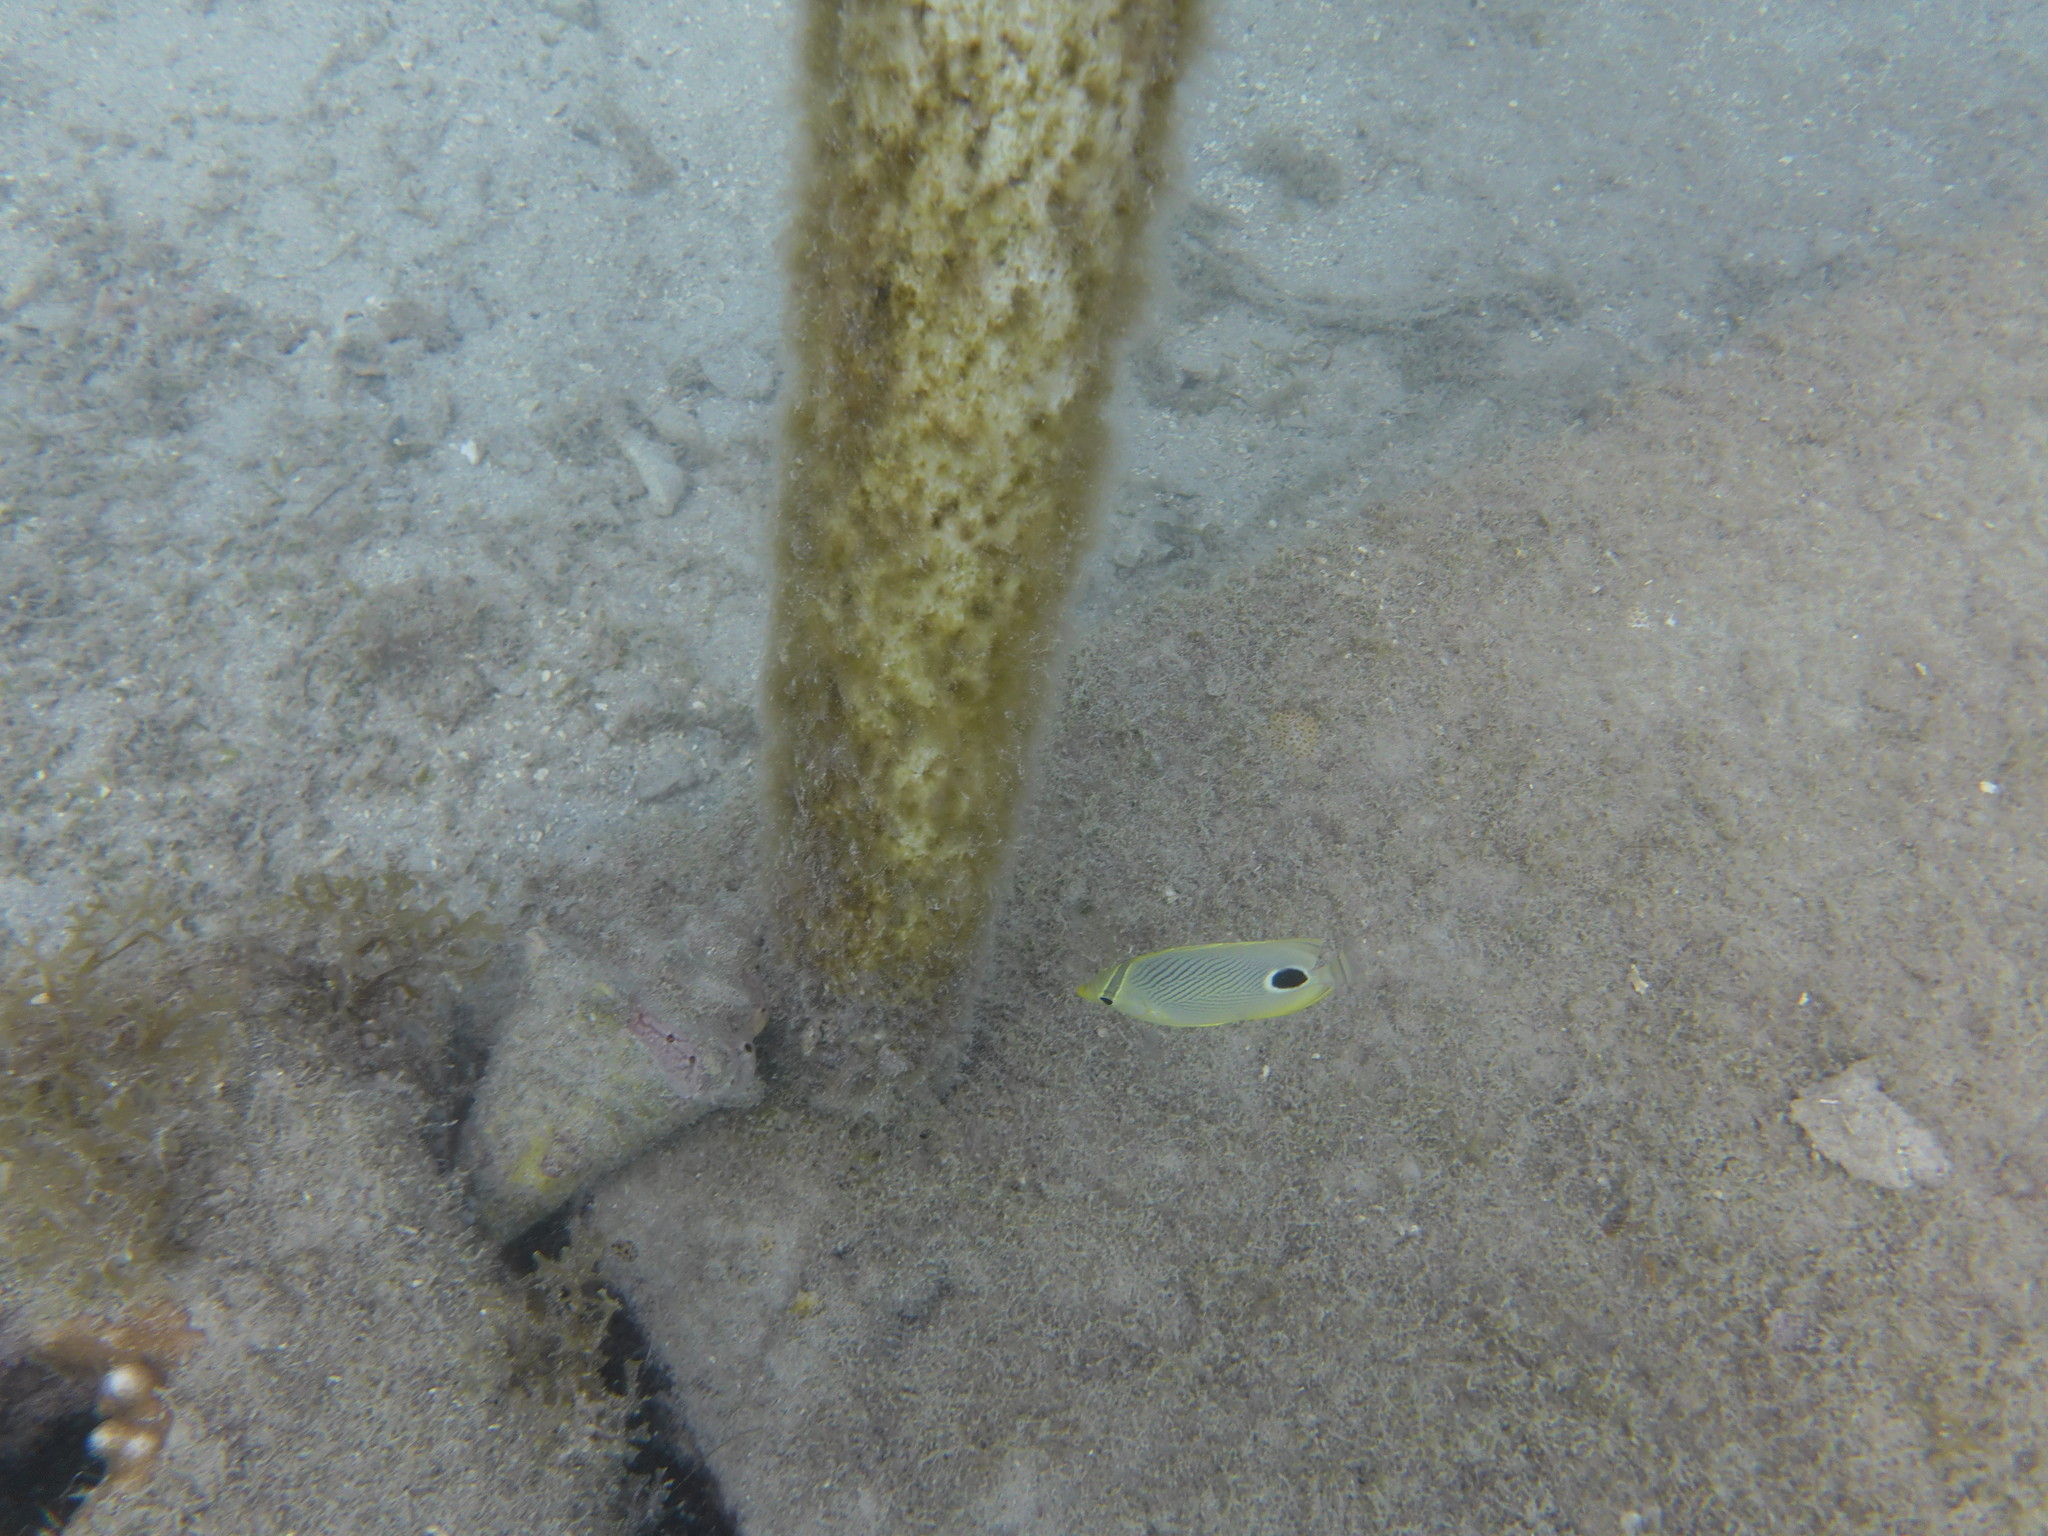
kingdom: Animalia
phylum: Chordata
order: Perciformes
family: Chaetodontidae
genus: Chaetodon
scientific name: Chaetodon capistratus
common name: Kete
